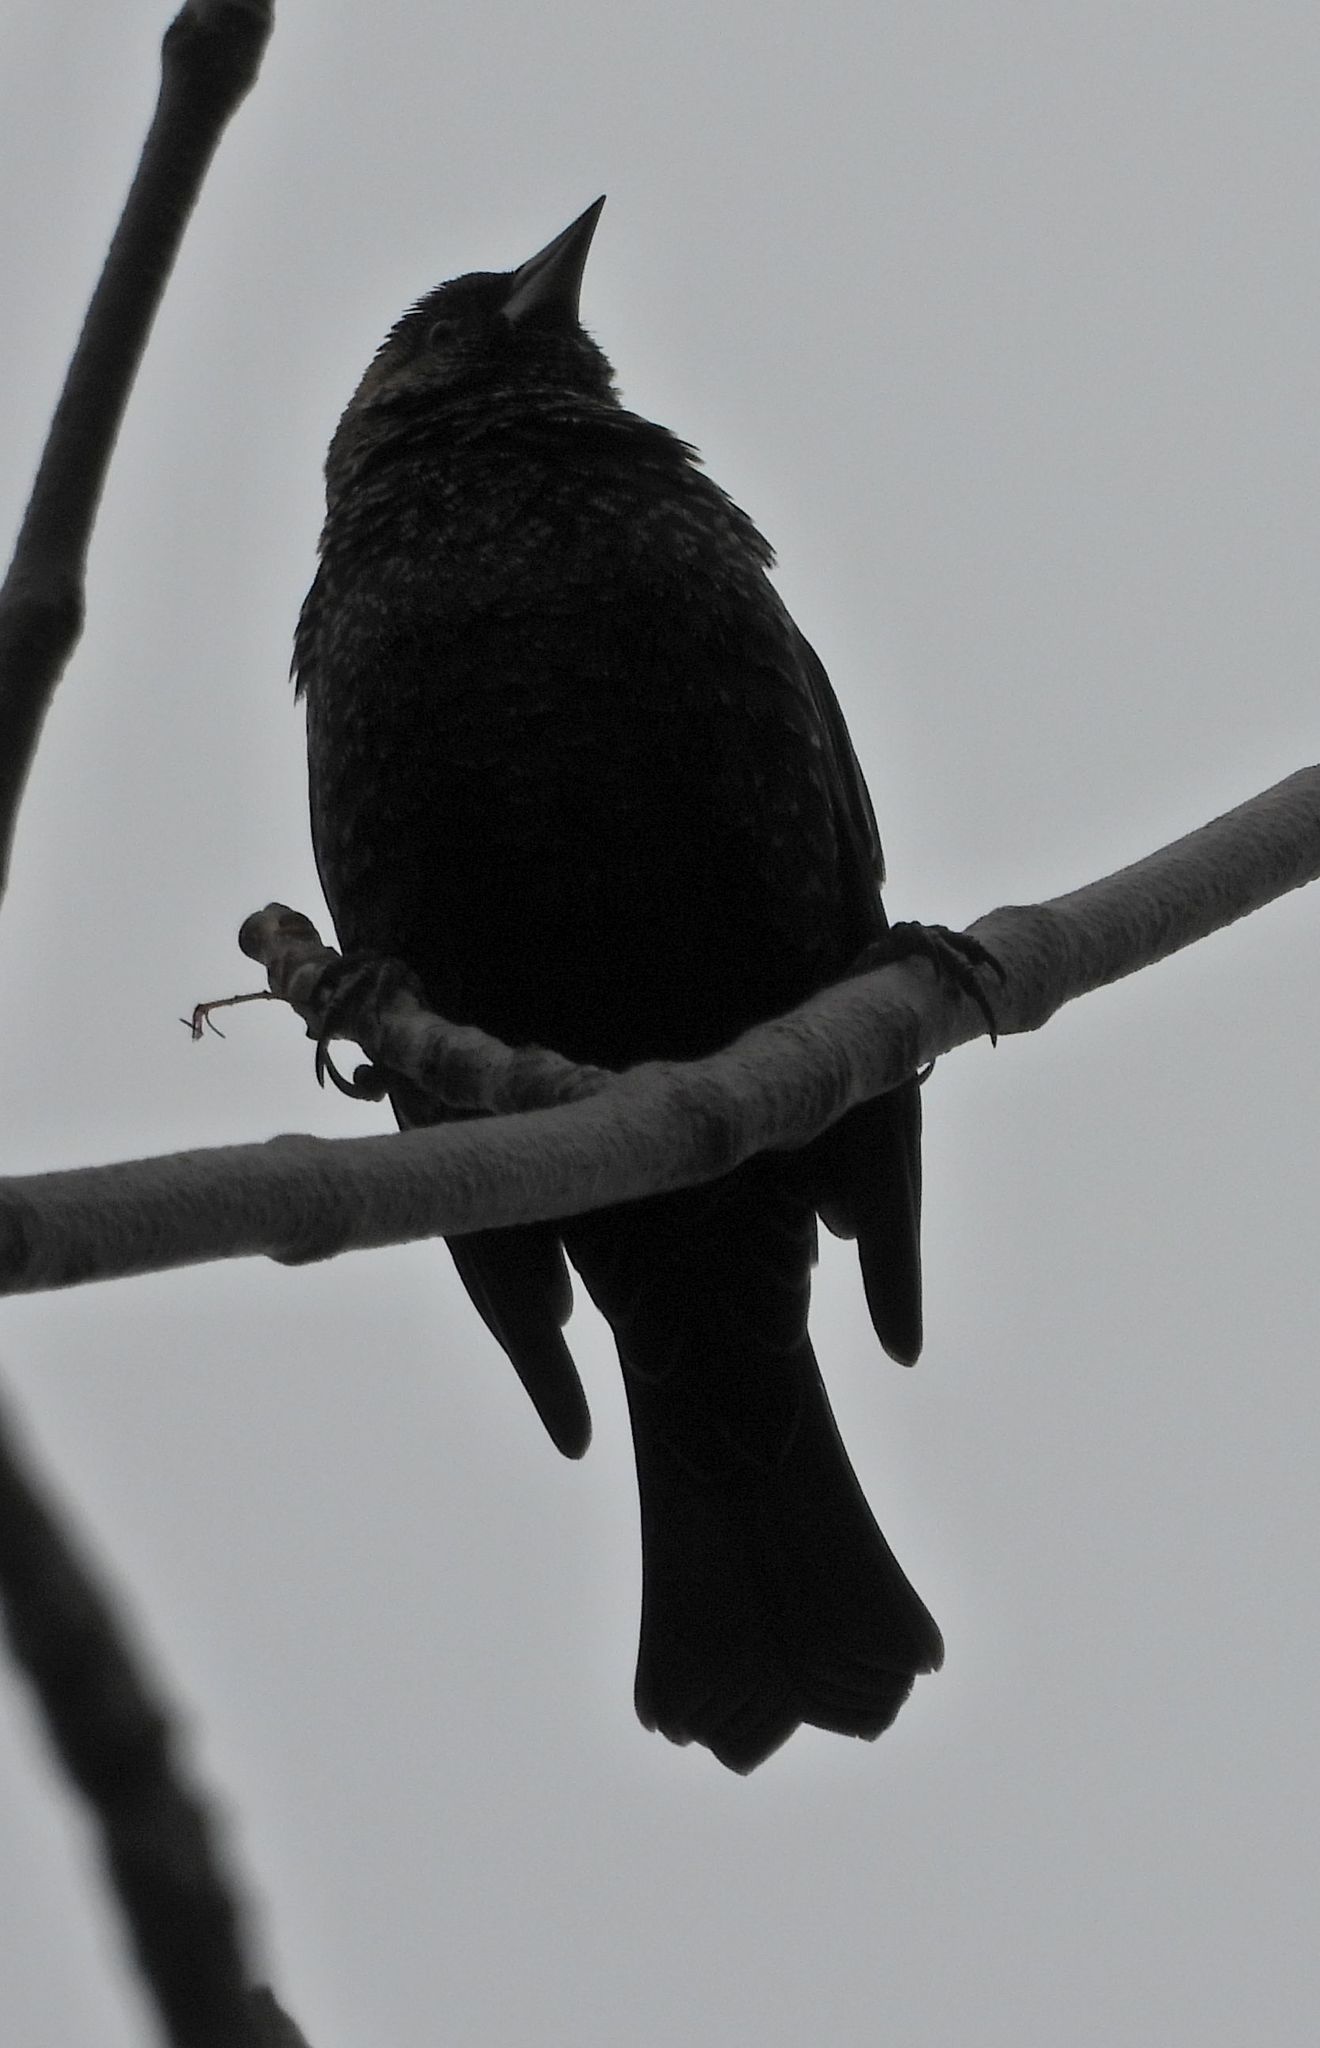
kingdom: Animalia
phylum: Chordata
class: Aves
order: Passeriformes
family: Icteridae
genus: Agelaius
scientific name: Agelaius phoeniceus
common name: Red-winged blackbird
